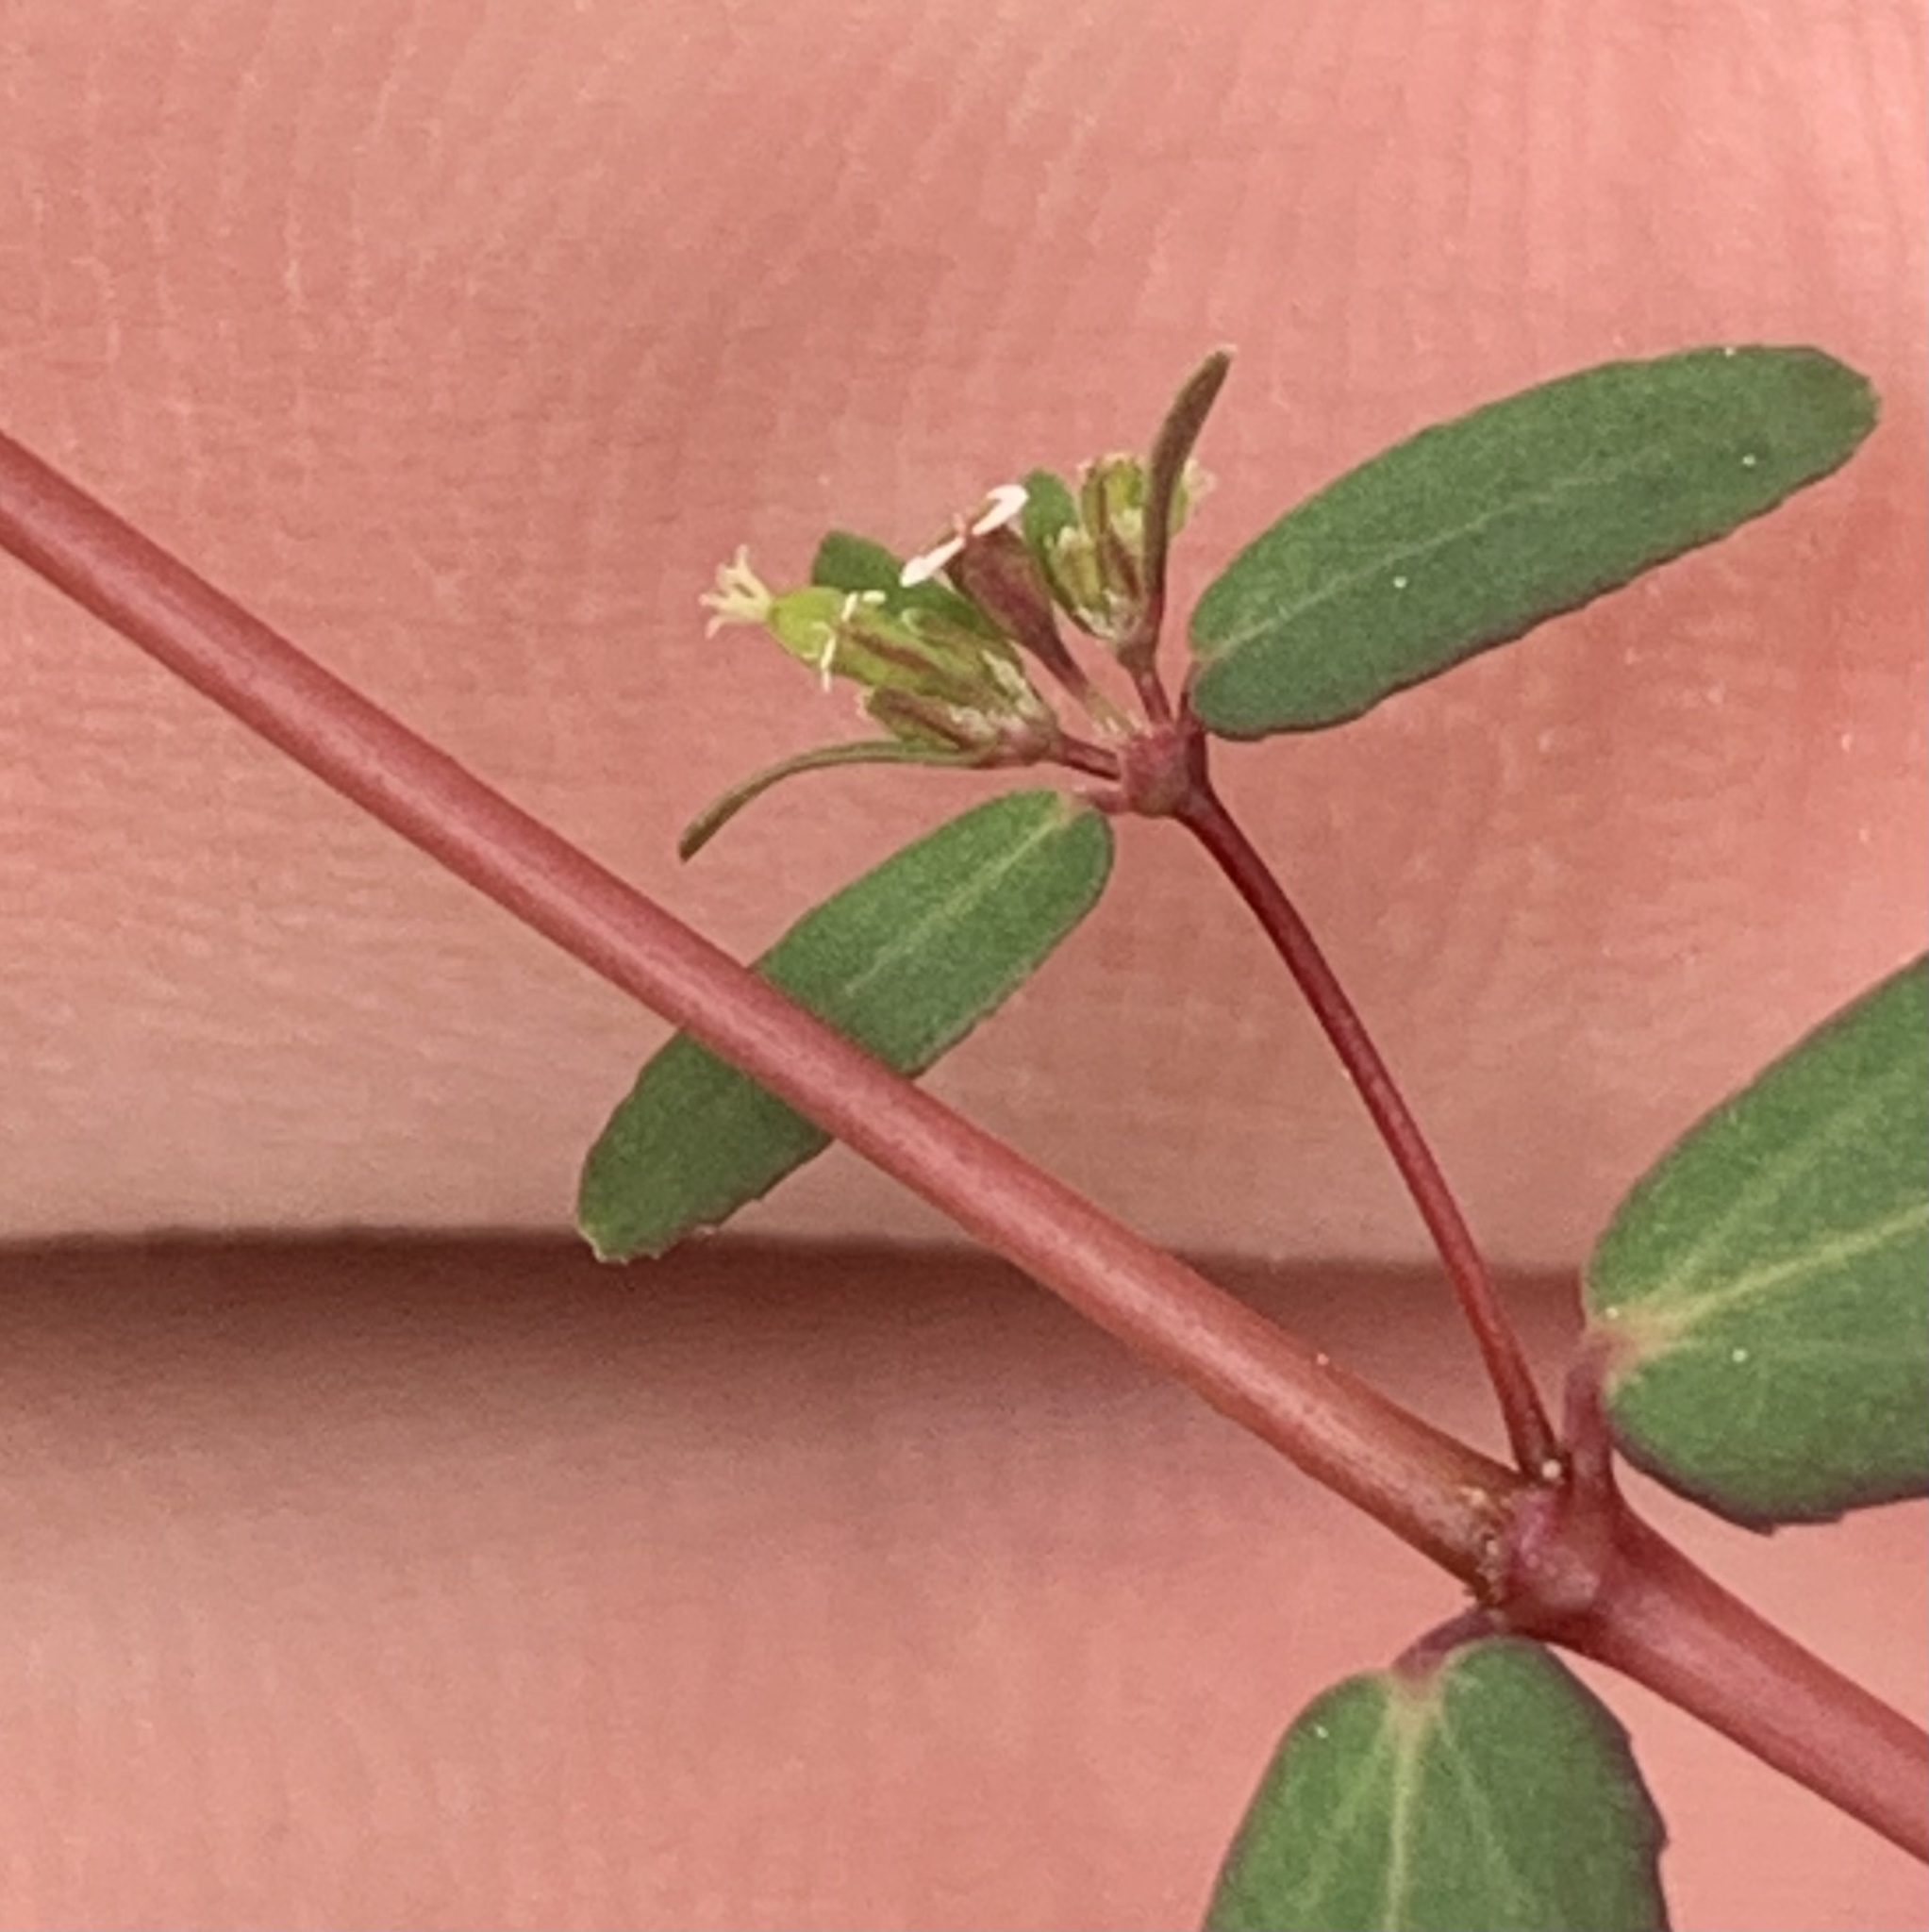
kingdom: Plantae
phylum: Tracheophyta
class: Magnoliopsida
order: Malpighiales
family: Euphorbiaceae
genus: Euphorbia
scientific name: Euphorbia hyssopifolia
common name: Hyssopleaf sandmat
